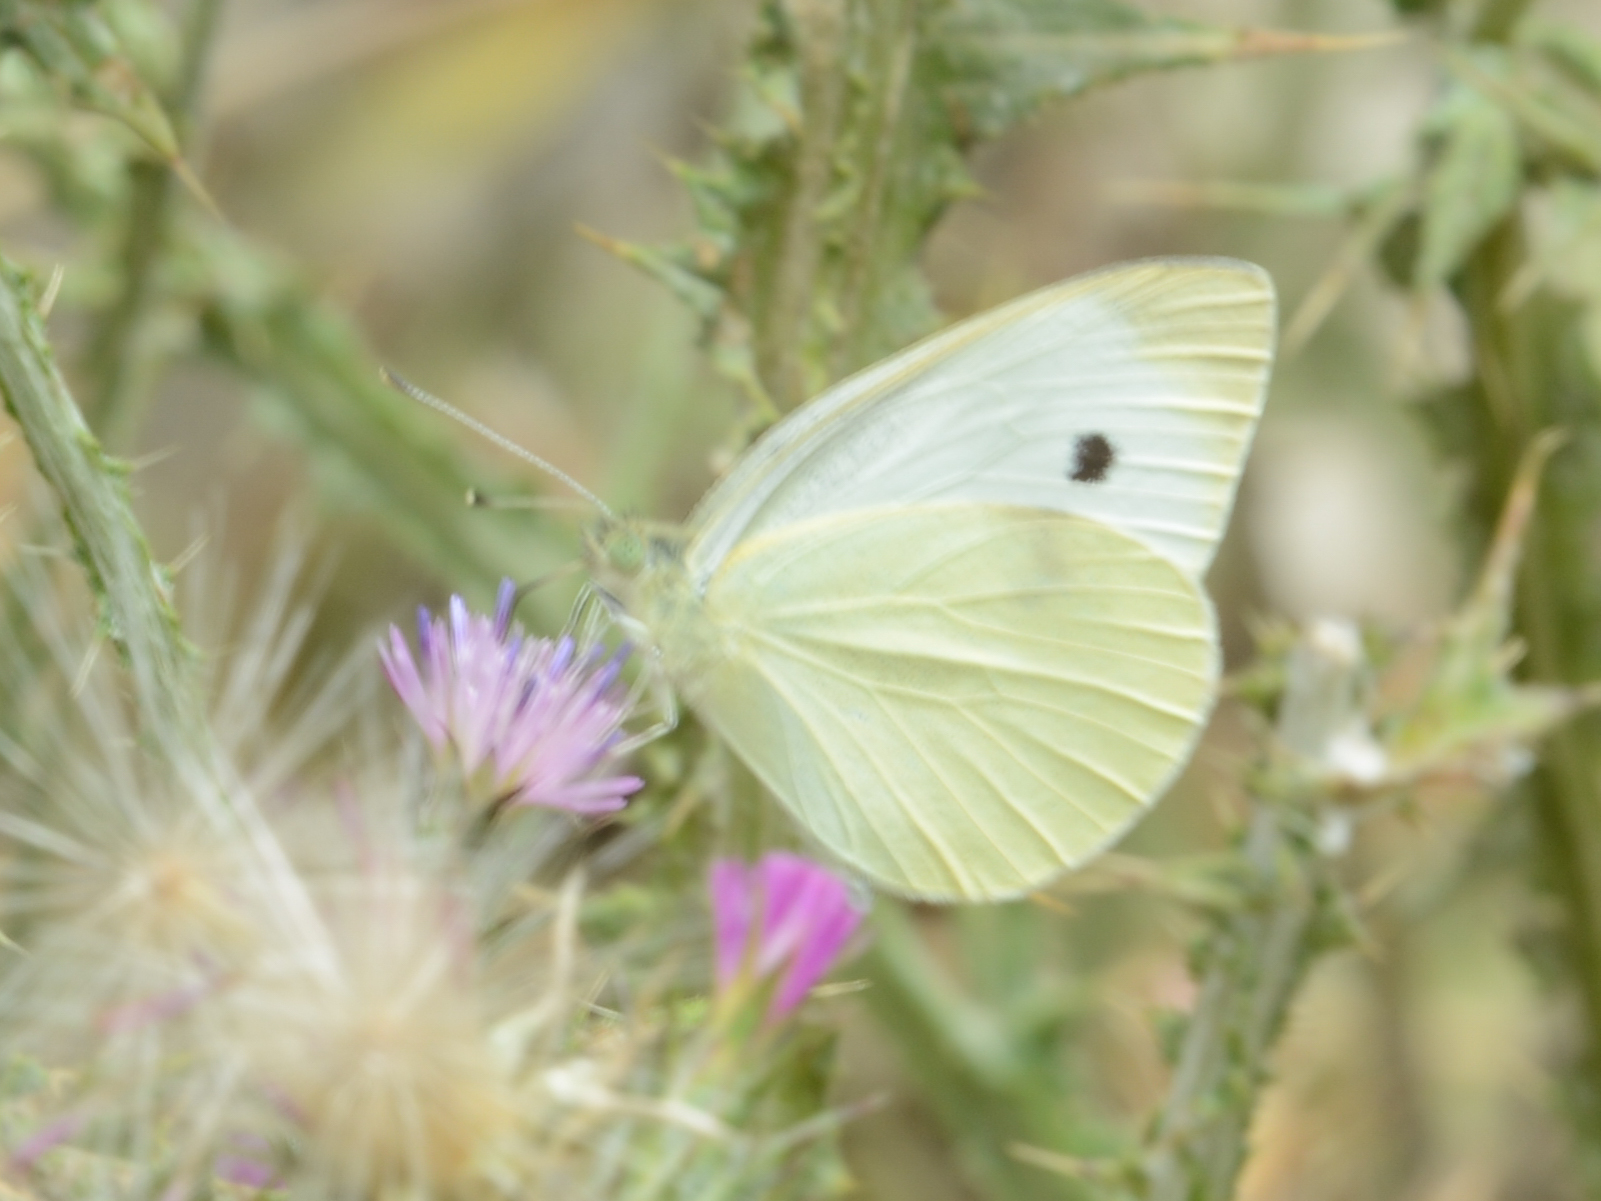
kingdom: Animalia
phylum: Arthropoda
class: Insecta
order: Lepidoptera
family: Pieridae
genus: Pieris
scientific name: Pieris rapae
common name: Small white
